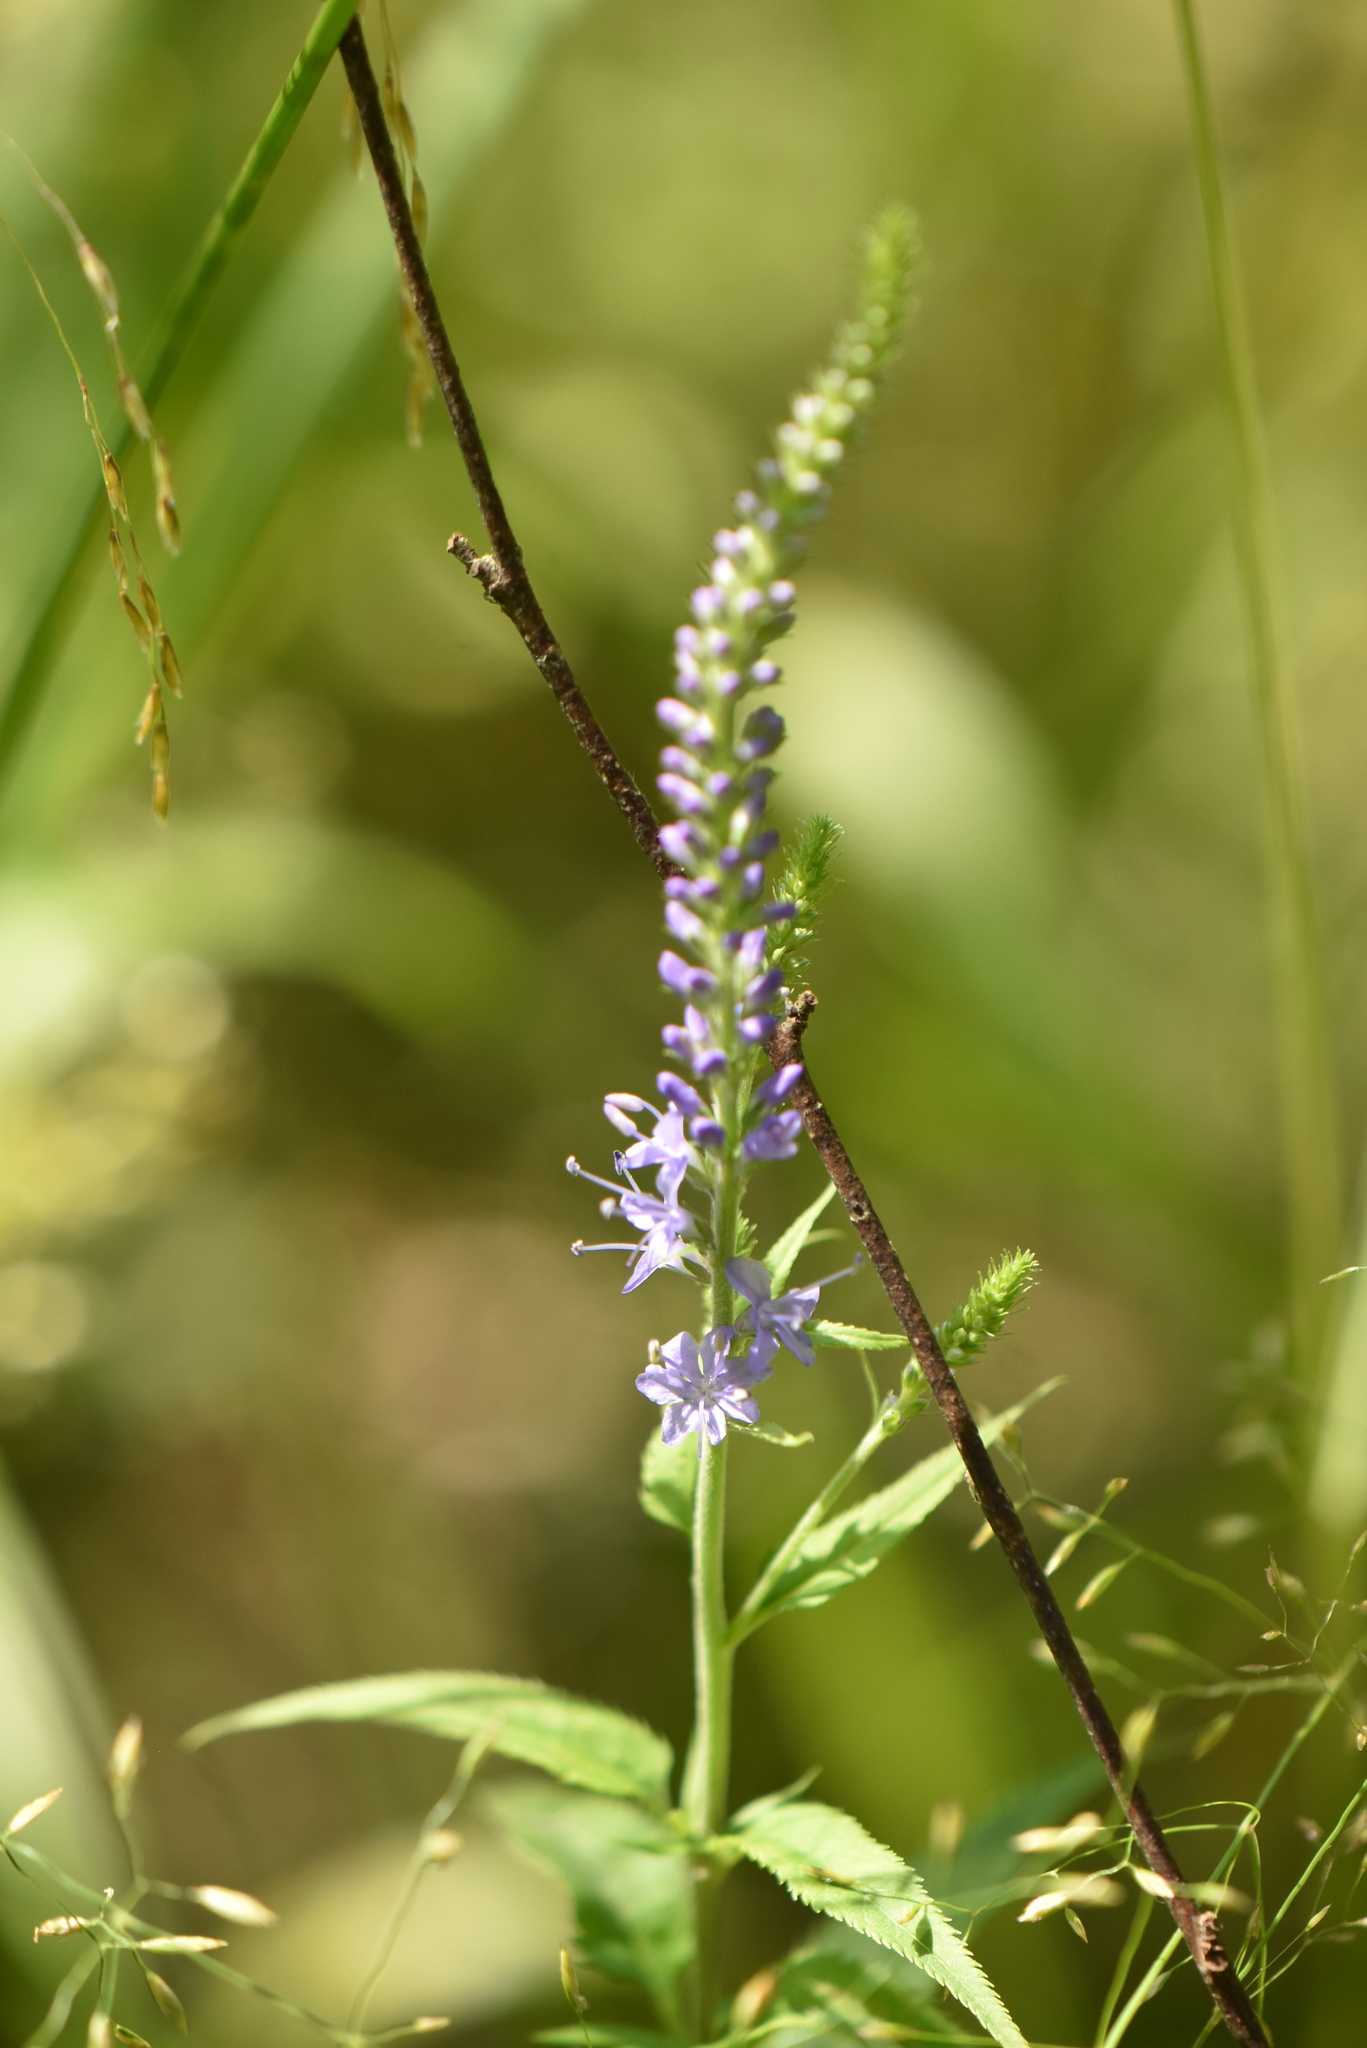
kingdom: Plantae
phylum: Tracheophyta
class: Magnoliopsida
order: Lamiales
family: Plantaginaceae
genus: Veronica
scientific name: Veronica longifolia
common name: Garden speedwell
